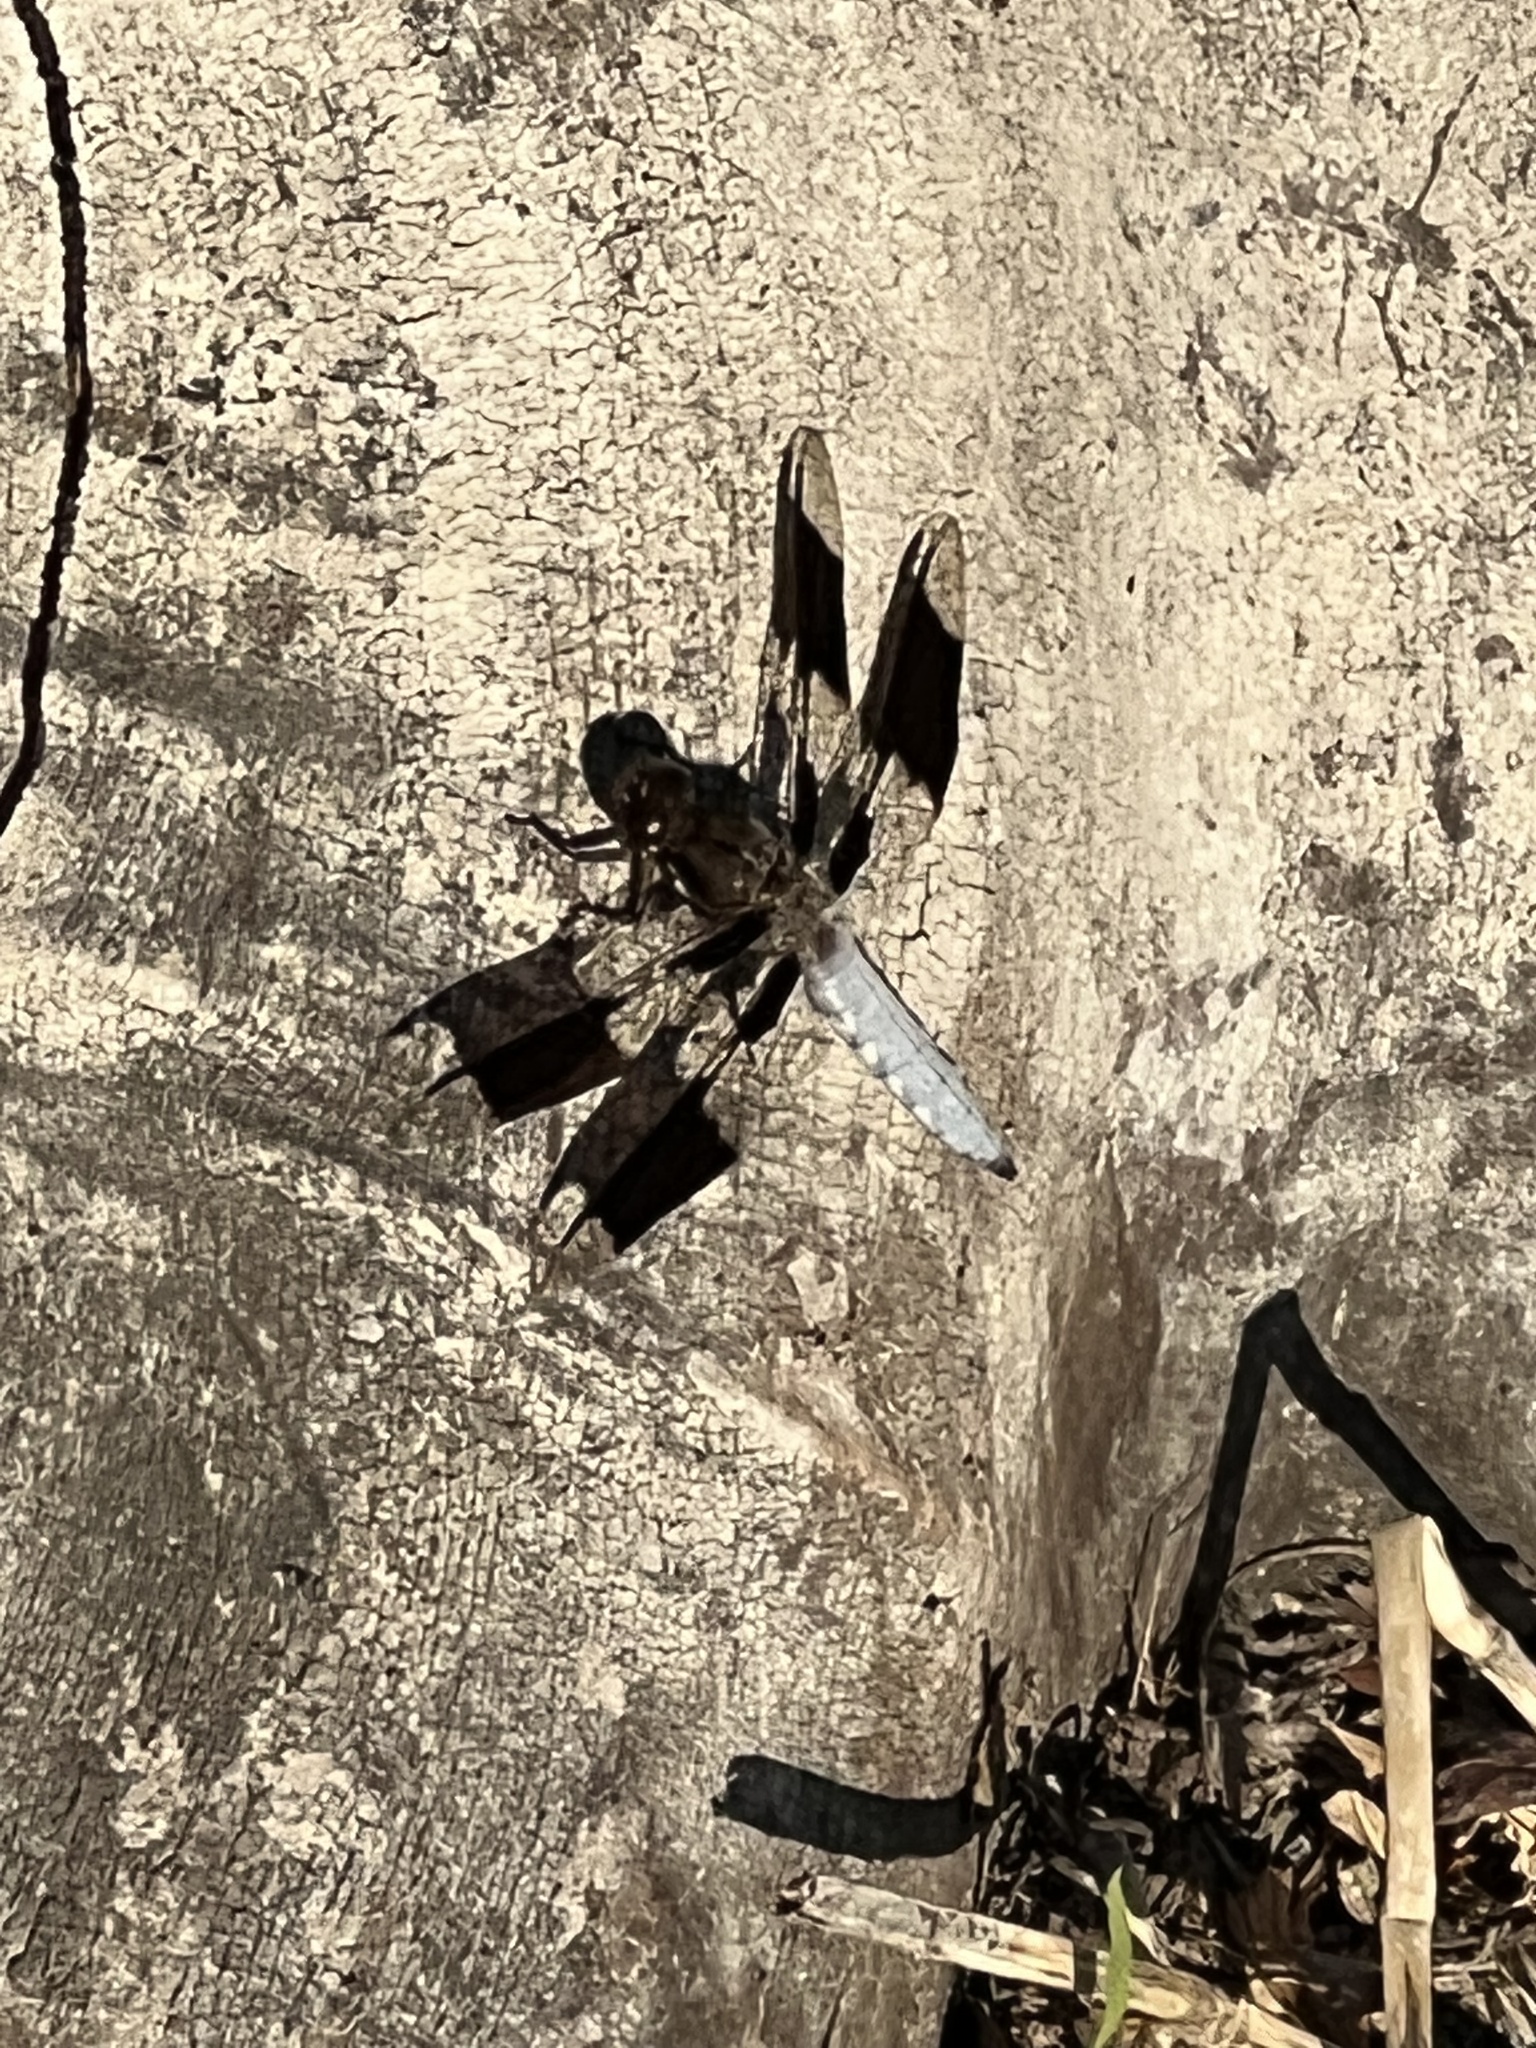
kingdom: Animalia
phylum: Arthropoda
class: Insecta
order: Odonata
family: Libellulidae
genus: Plathemis
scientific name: Plathemis lydia
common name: Common whitetail
